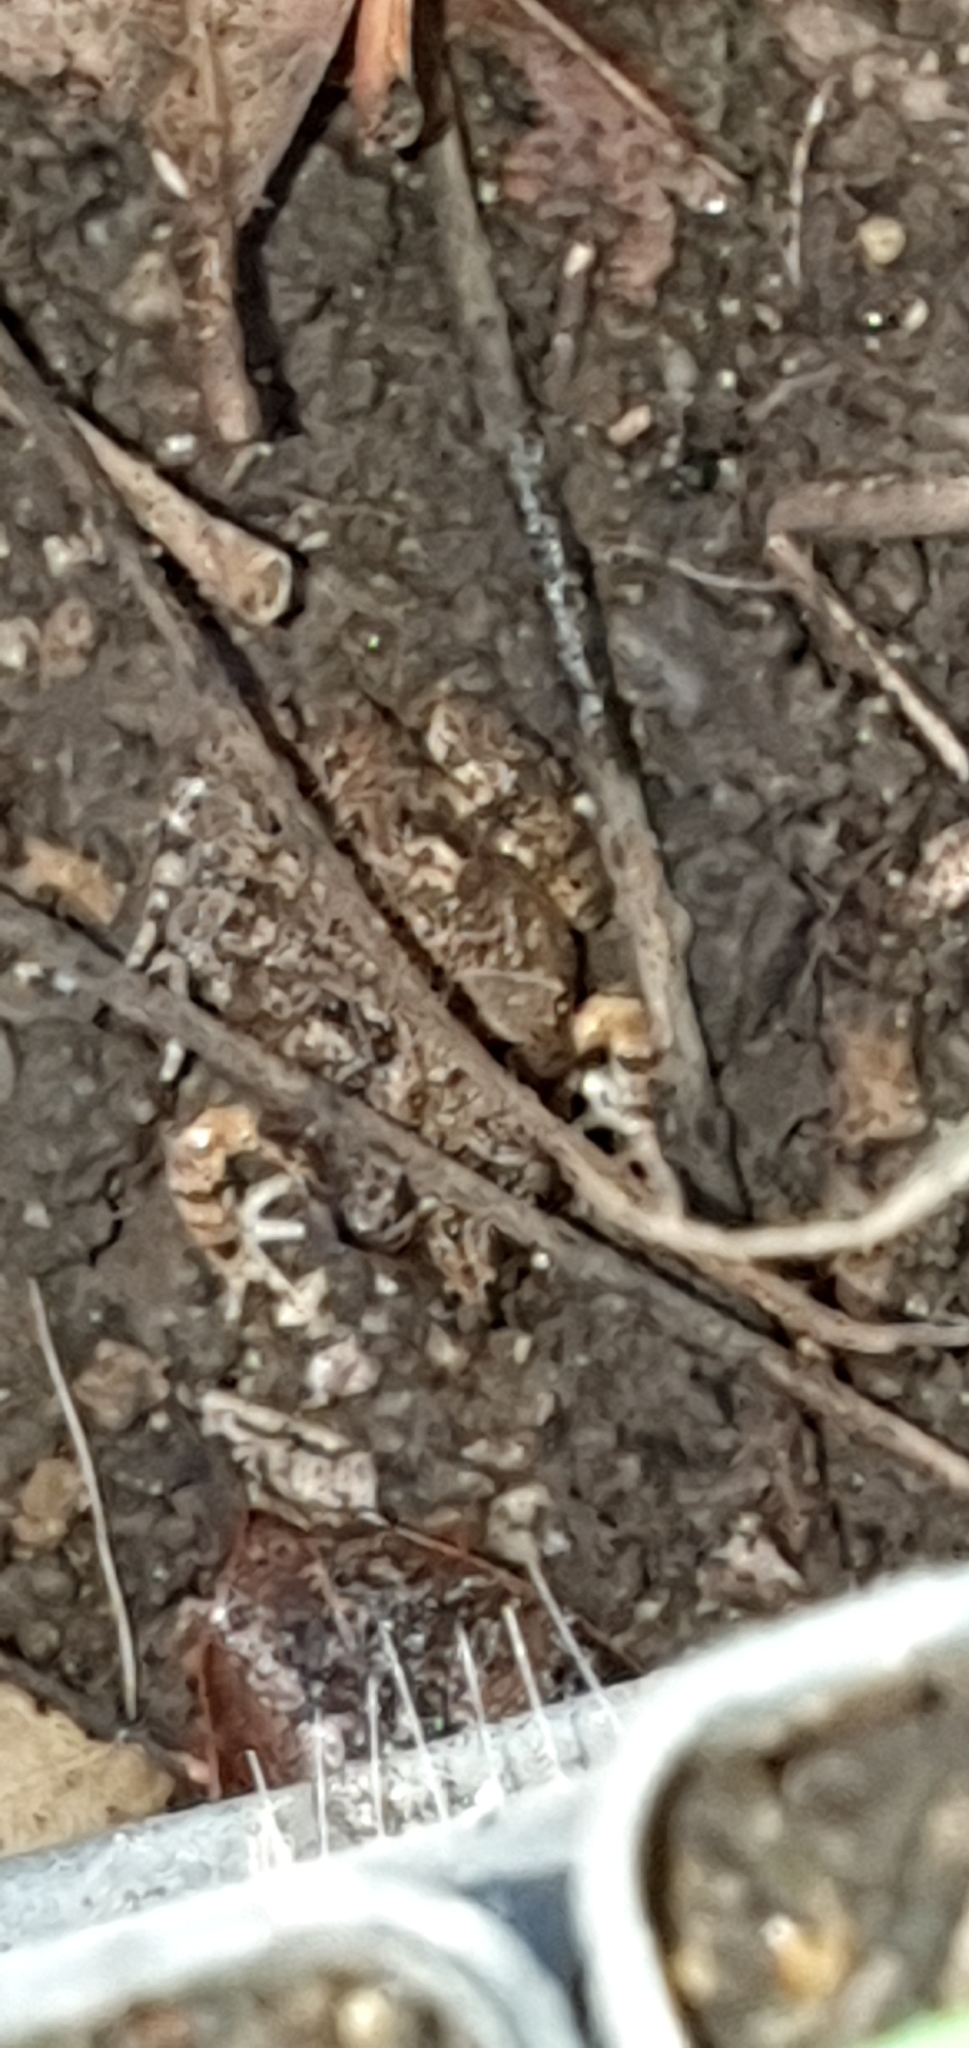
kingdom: Animalia
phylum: Chordata
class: Amphibia
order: Anura
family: Limnodynastidae
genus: Platyplectrum
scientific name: Platyplectrum ornatum
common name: Ornate burrowing frog
